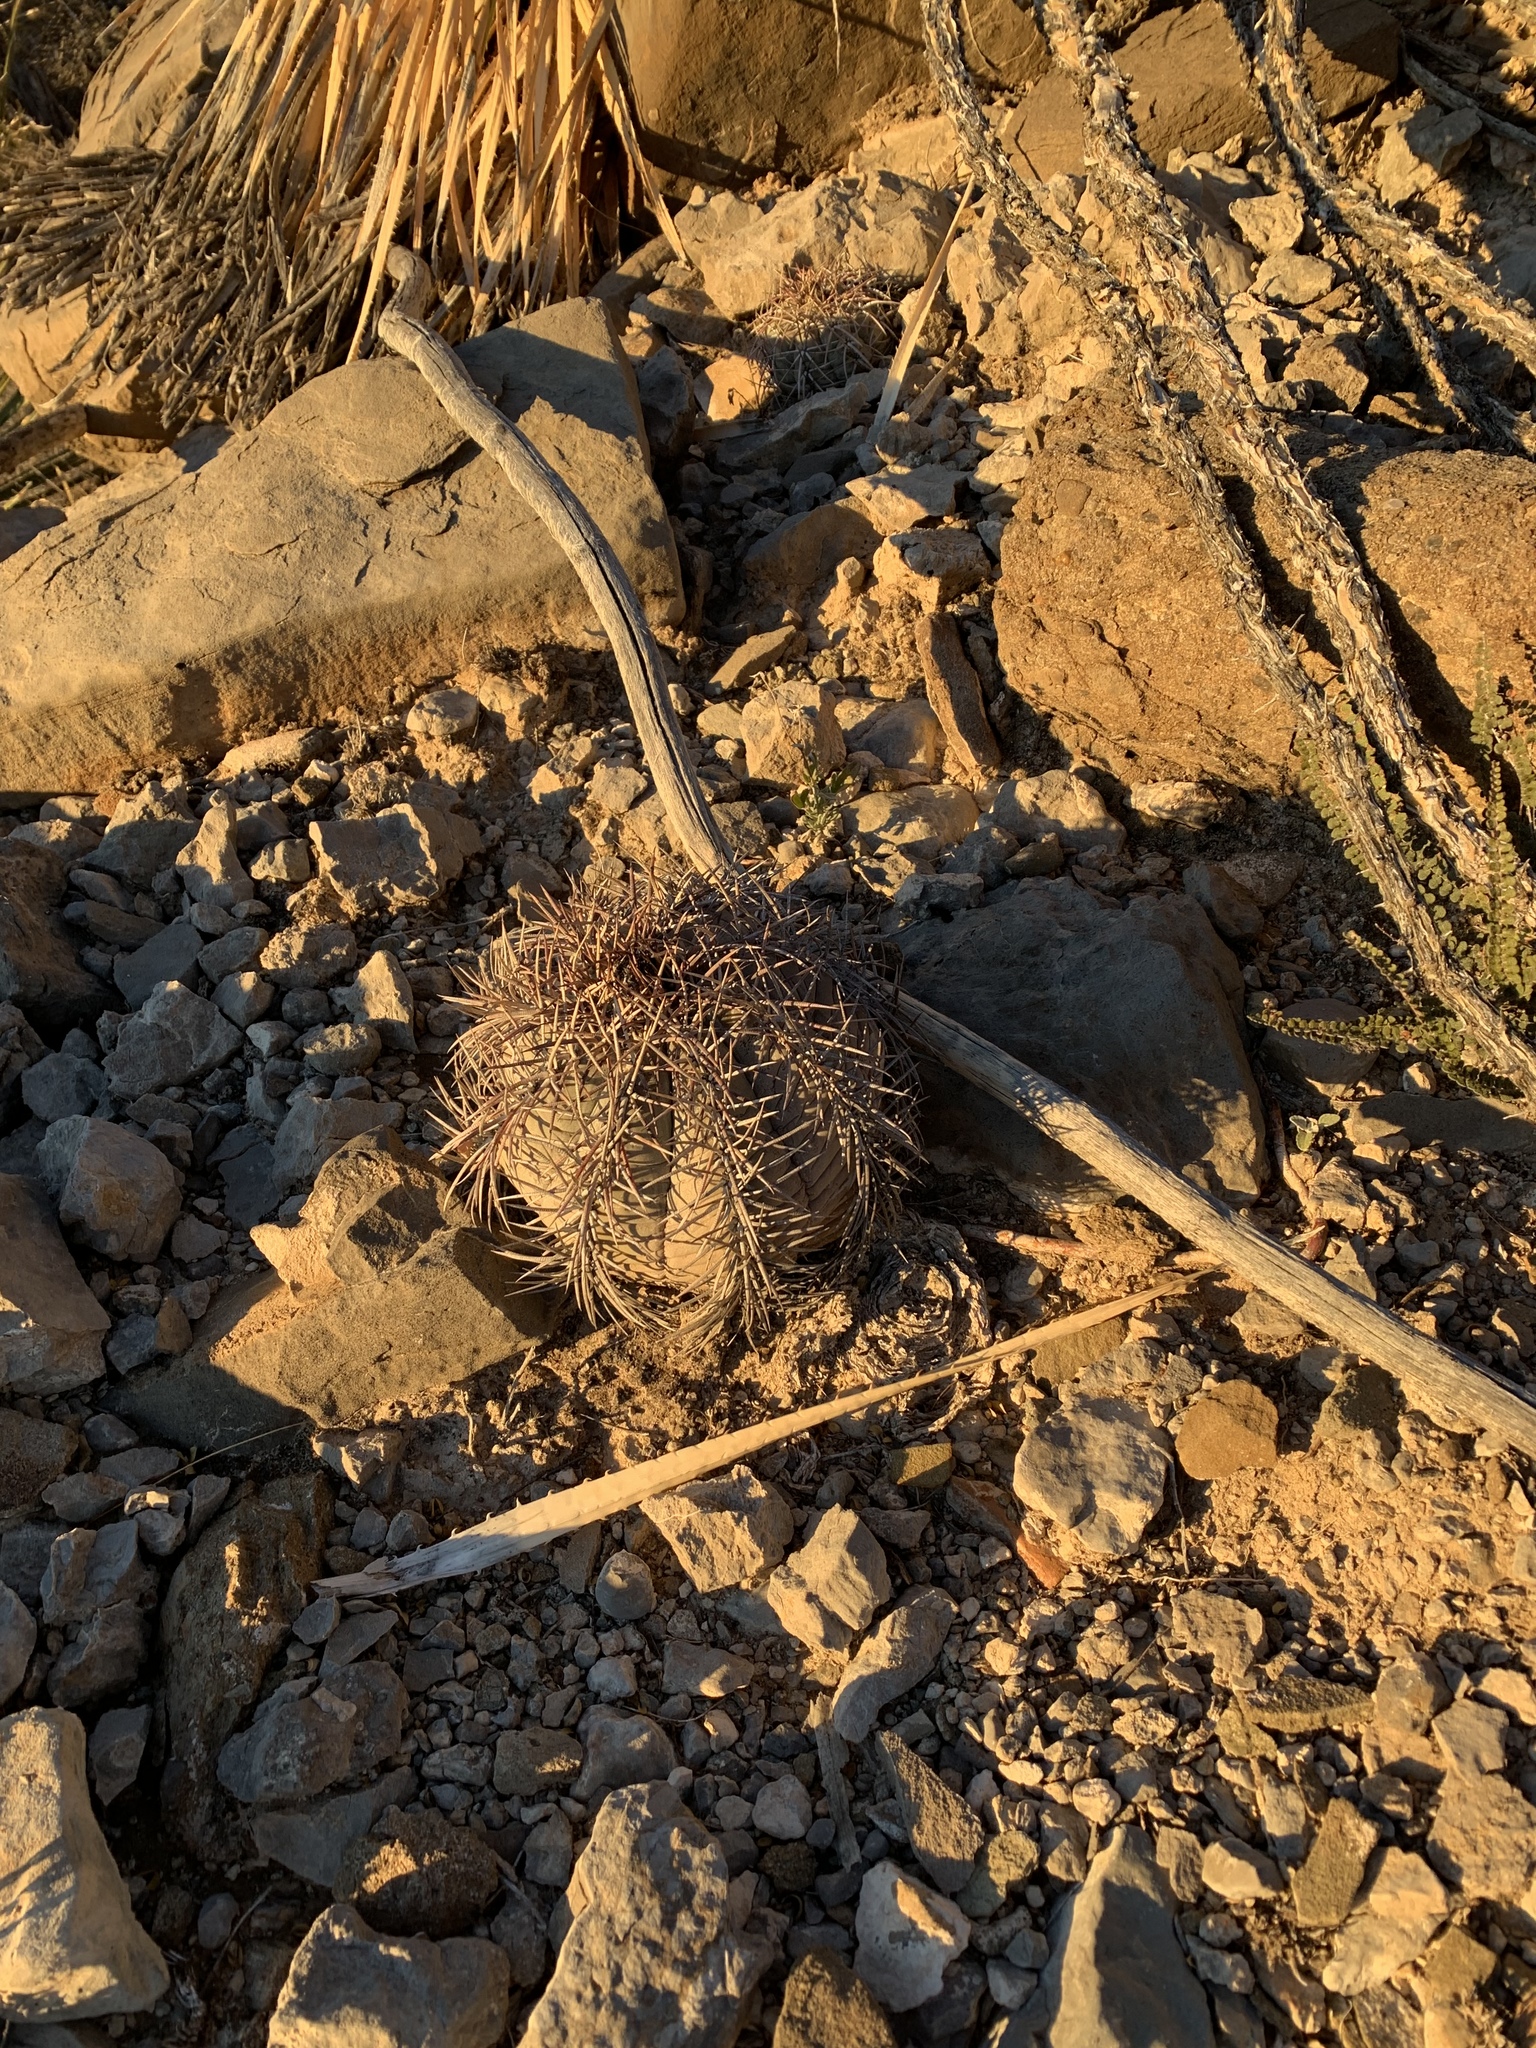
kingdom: Plantae
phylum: Tracheophyta
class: Magnoliopsida
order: Caryophyllales
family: Cactaceae
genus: Echinocactus
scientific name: Echinocactus horizonthalonius
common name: Devilshead
